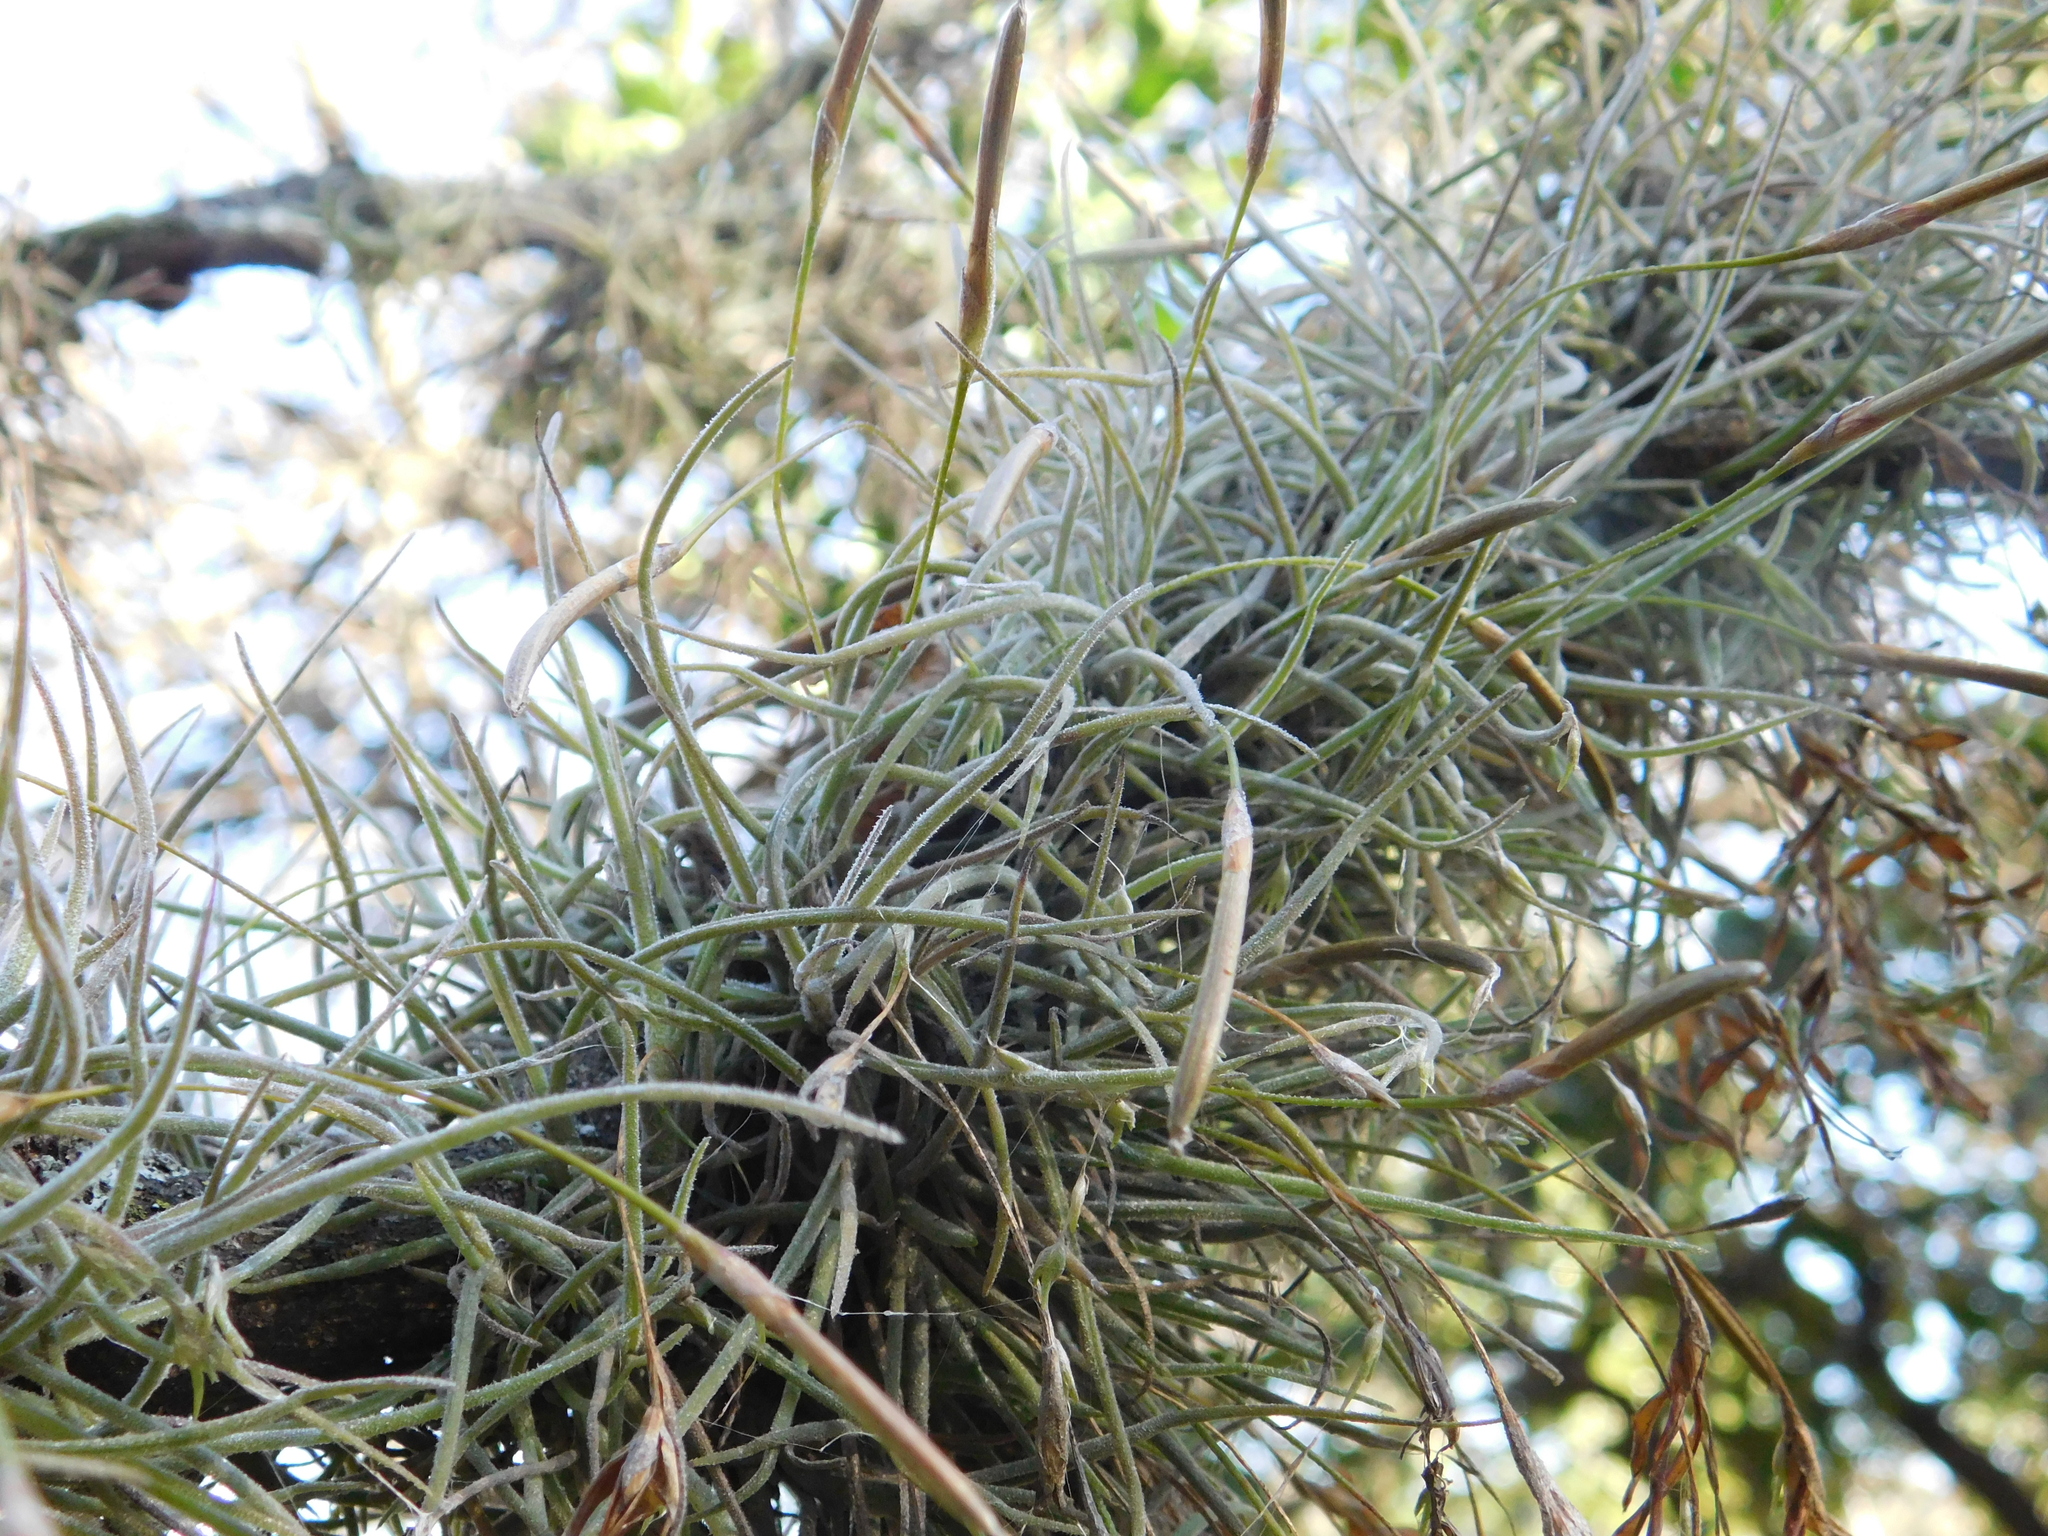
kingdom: Plantae
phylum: Tracheophyta
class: Liliopsida
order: Poales
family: Bromeliaceae
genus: Tillandsia
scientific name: Tillandsia recurvata
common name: Small ballmoss
